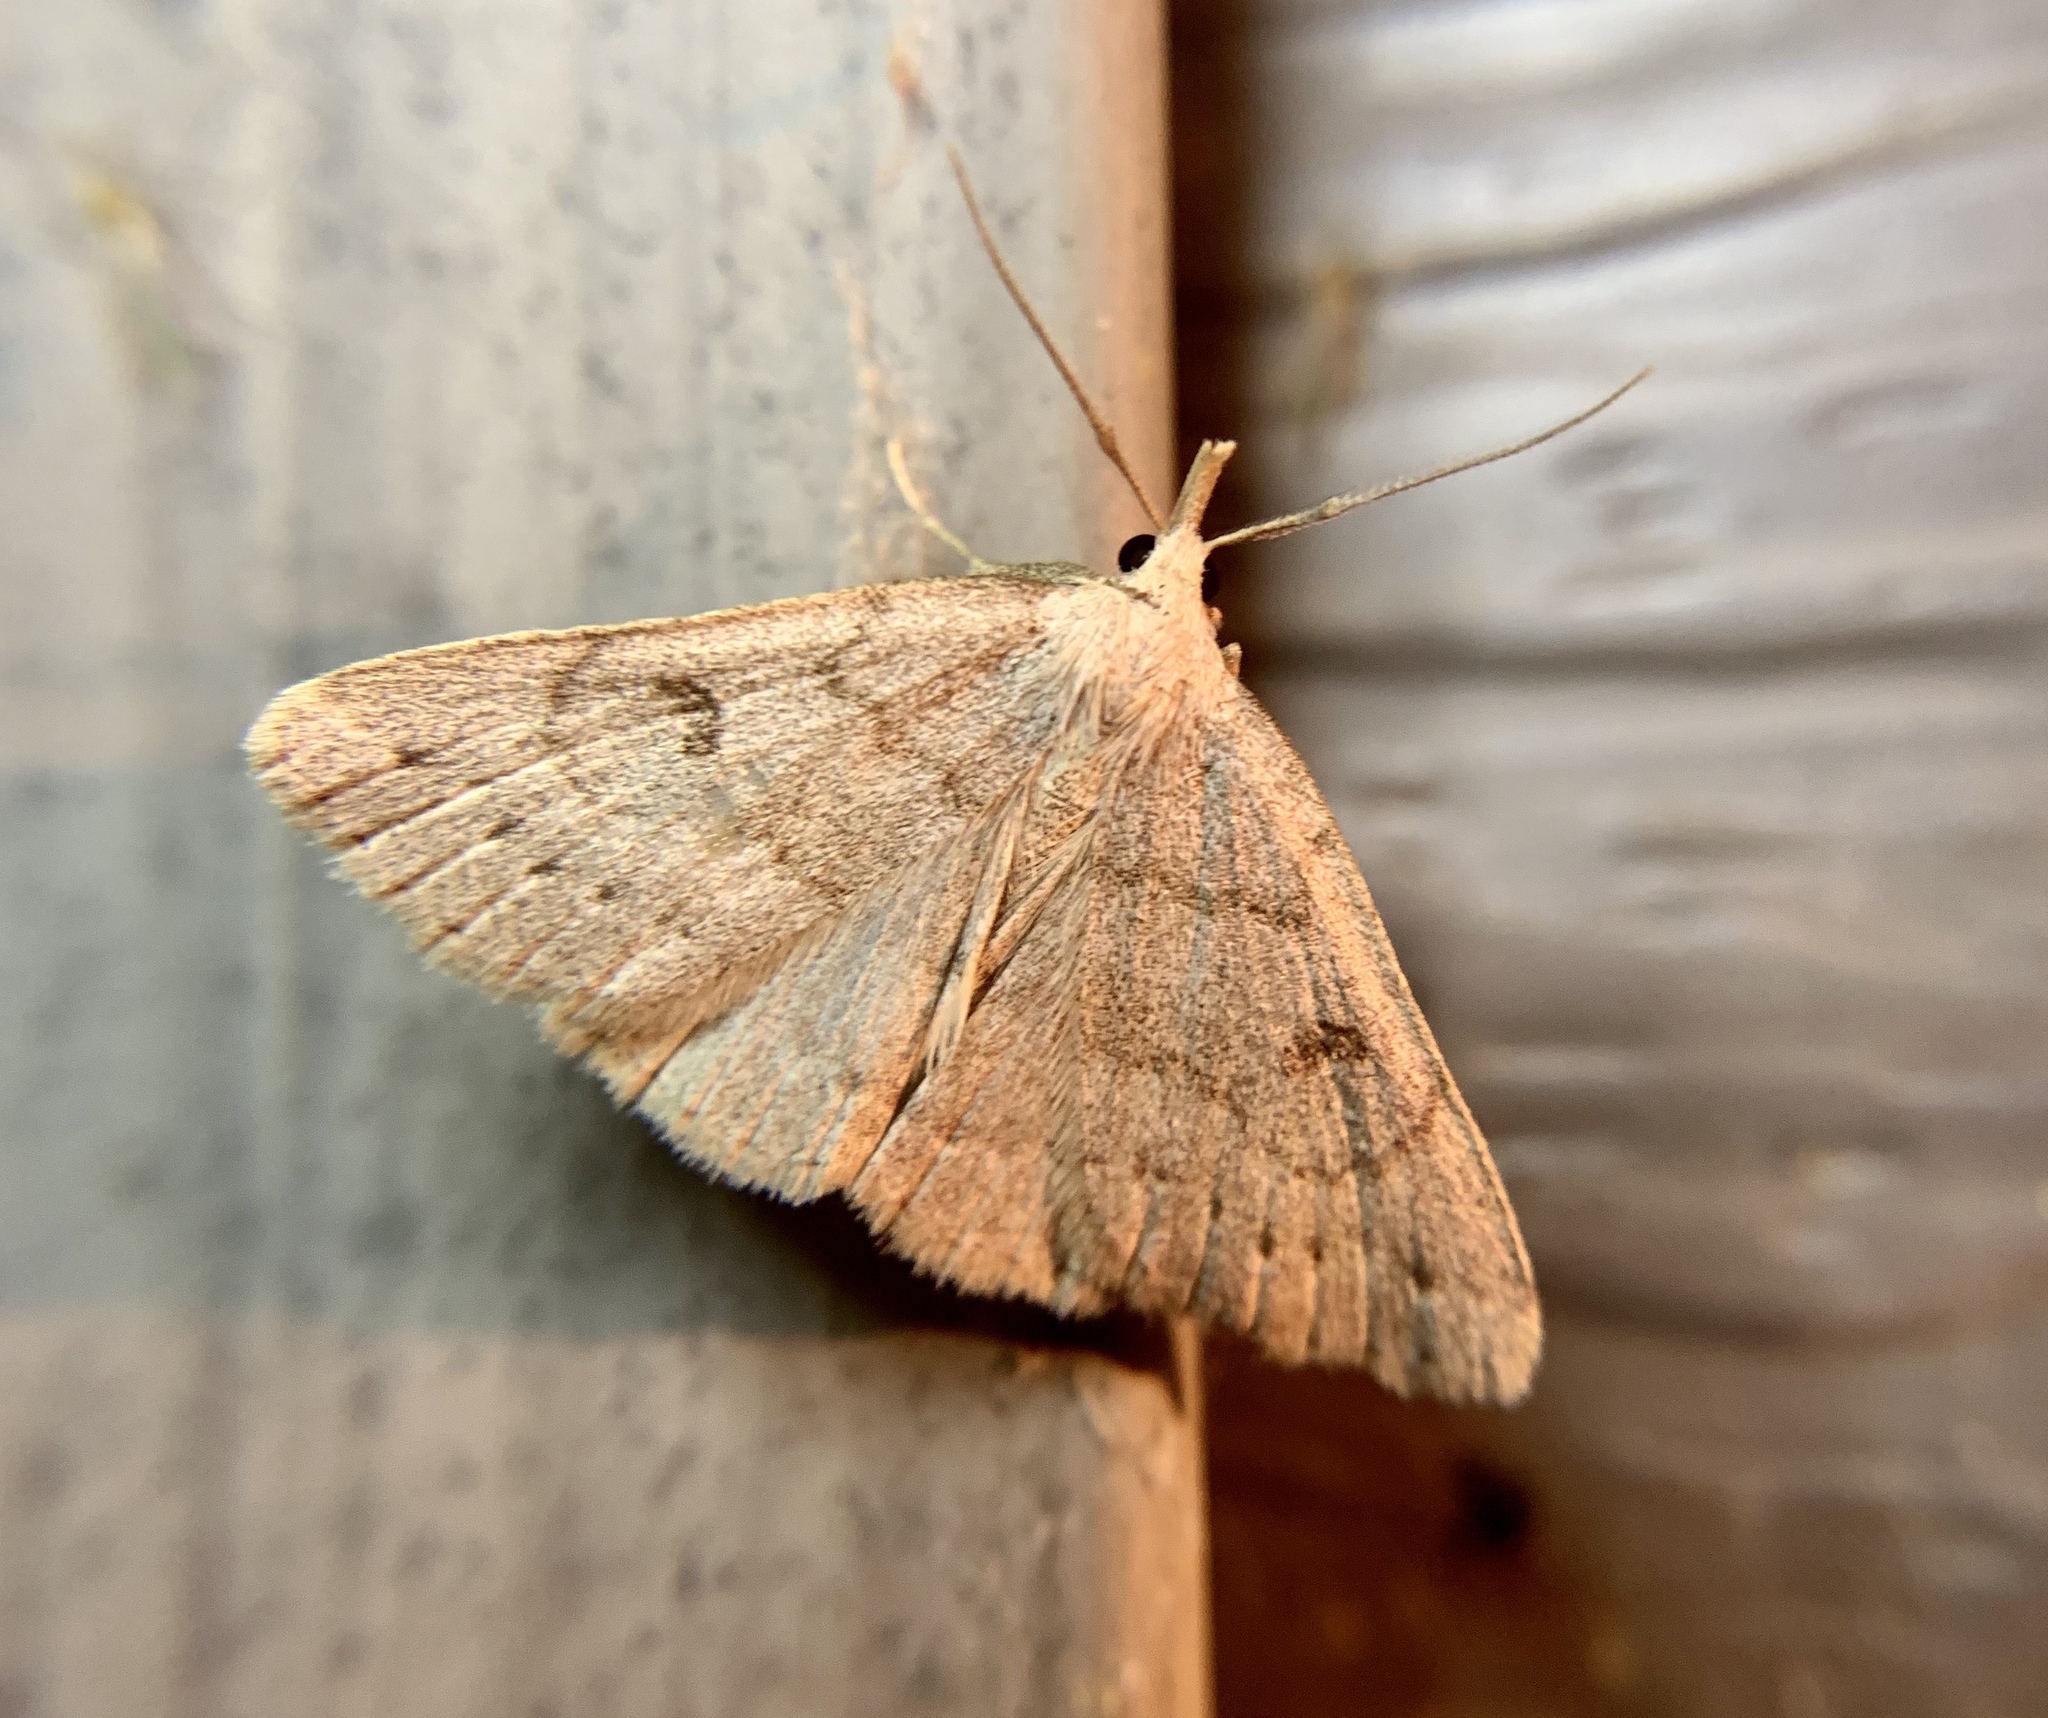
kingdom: Animalia
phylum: Arthropoda
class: Insecta
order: Lepidoptera
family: Erebidae
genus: Macrochilo
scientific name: Macrochilo morbidalis
